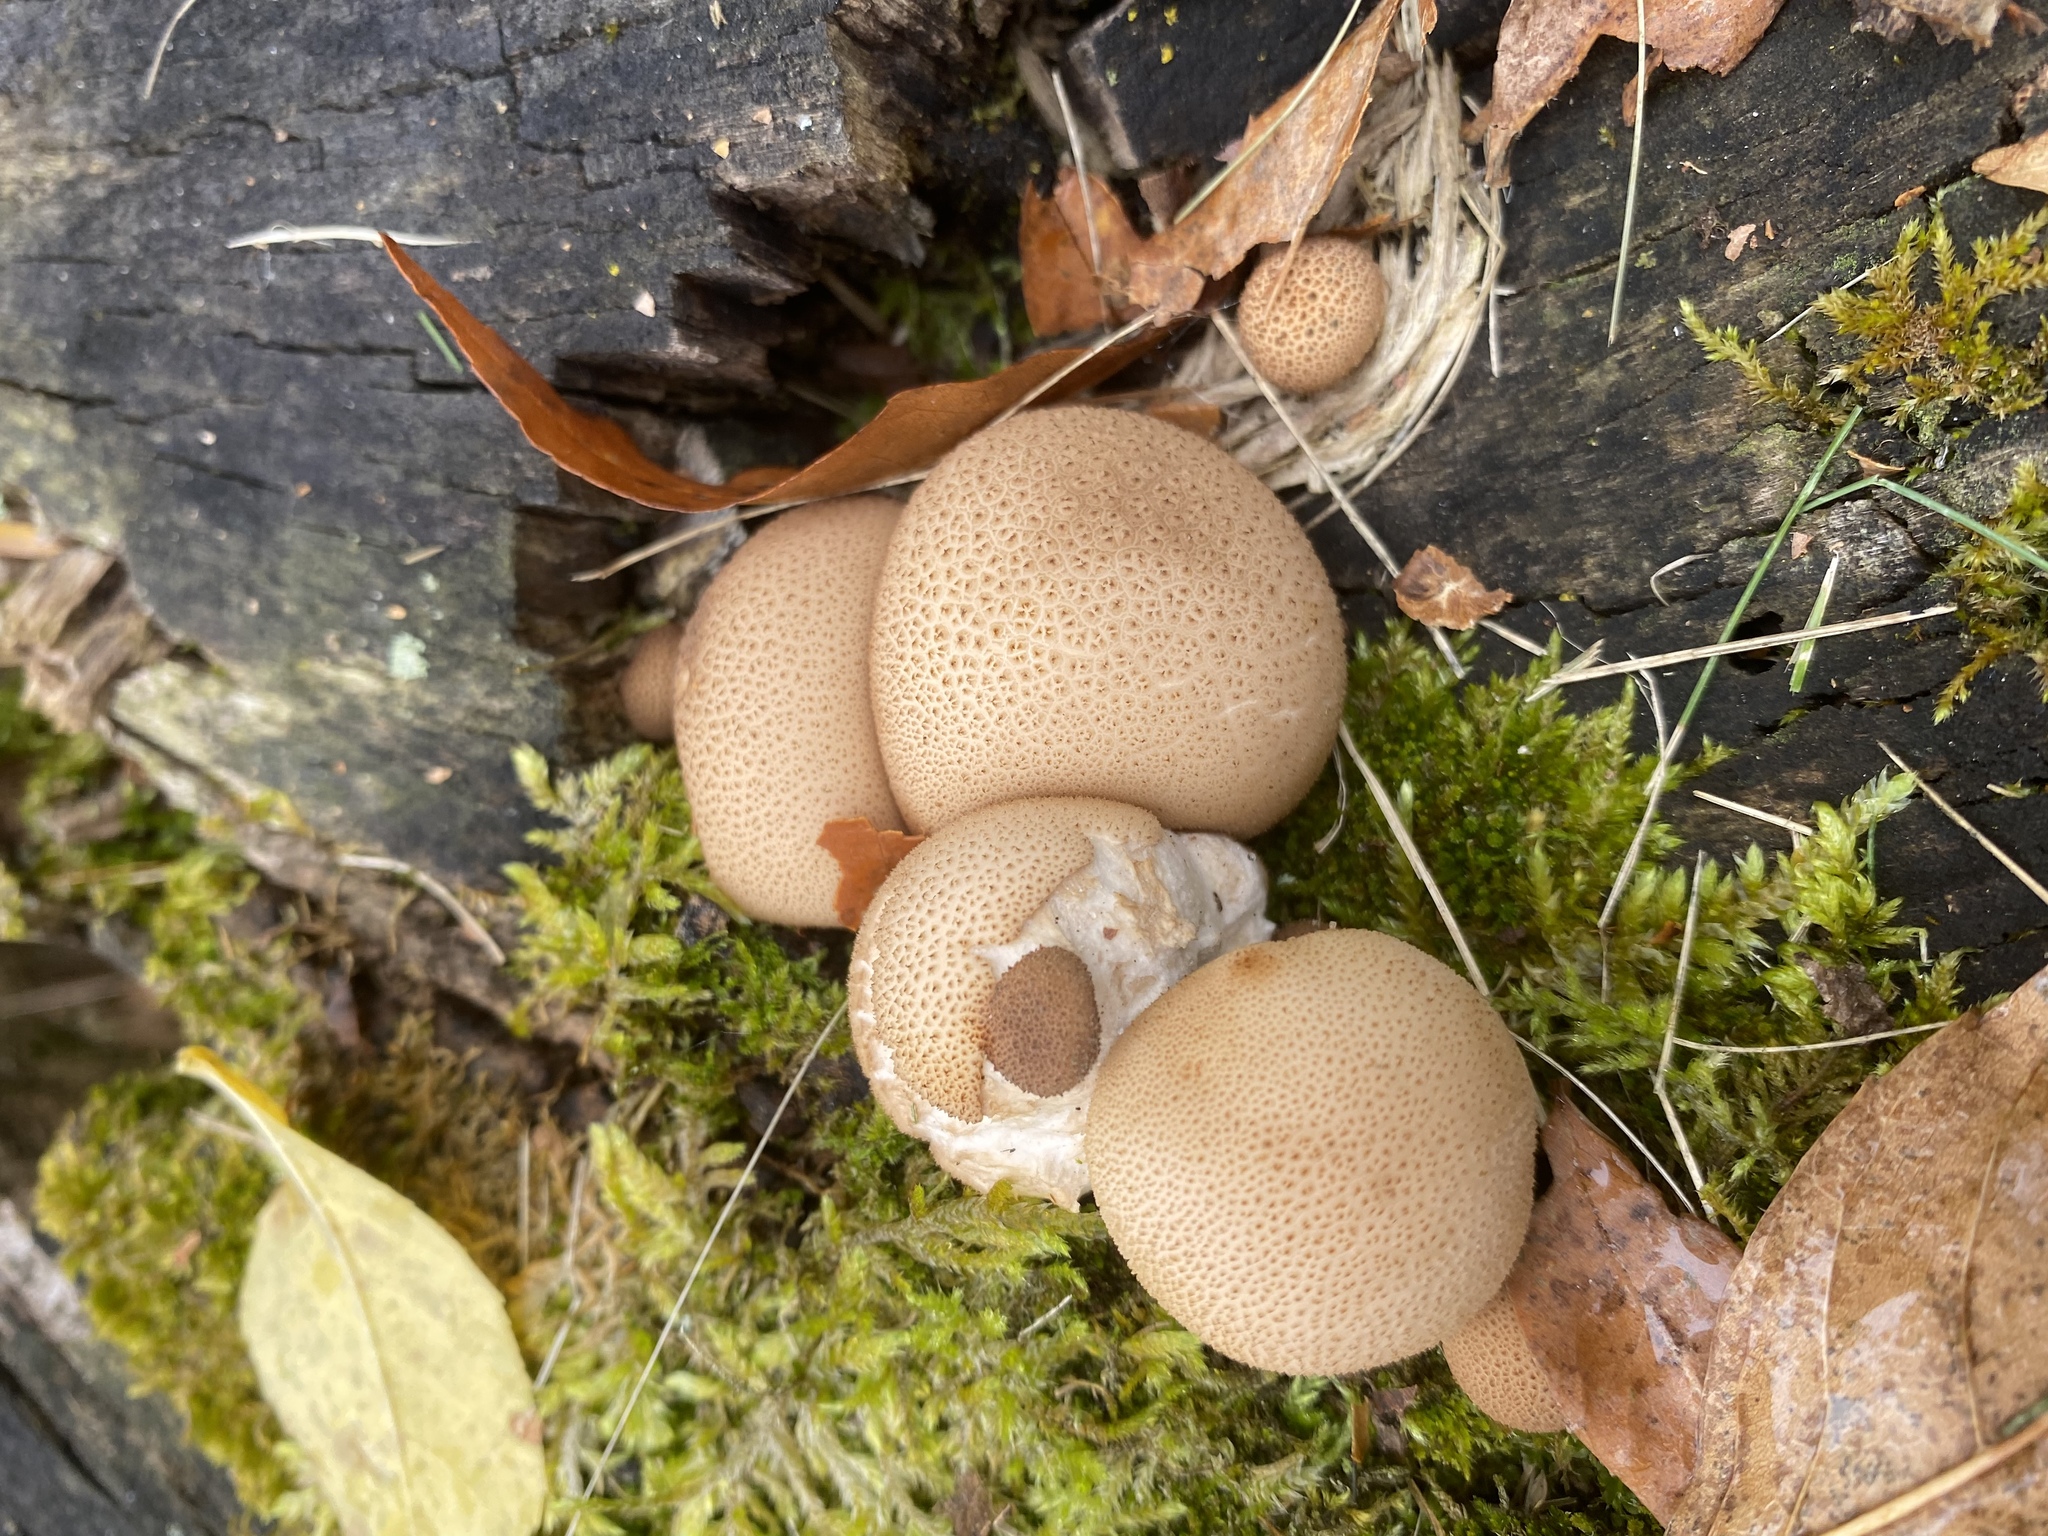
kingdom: Fungi
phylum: Basidiomycota
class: Agaricomycetes
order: Agaricales
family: Lycoperdaceae
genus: Apioperdon
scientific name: Apioperdon pyriforme
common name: Pear-shaped puffball
